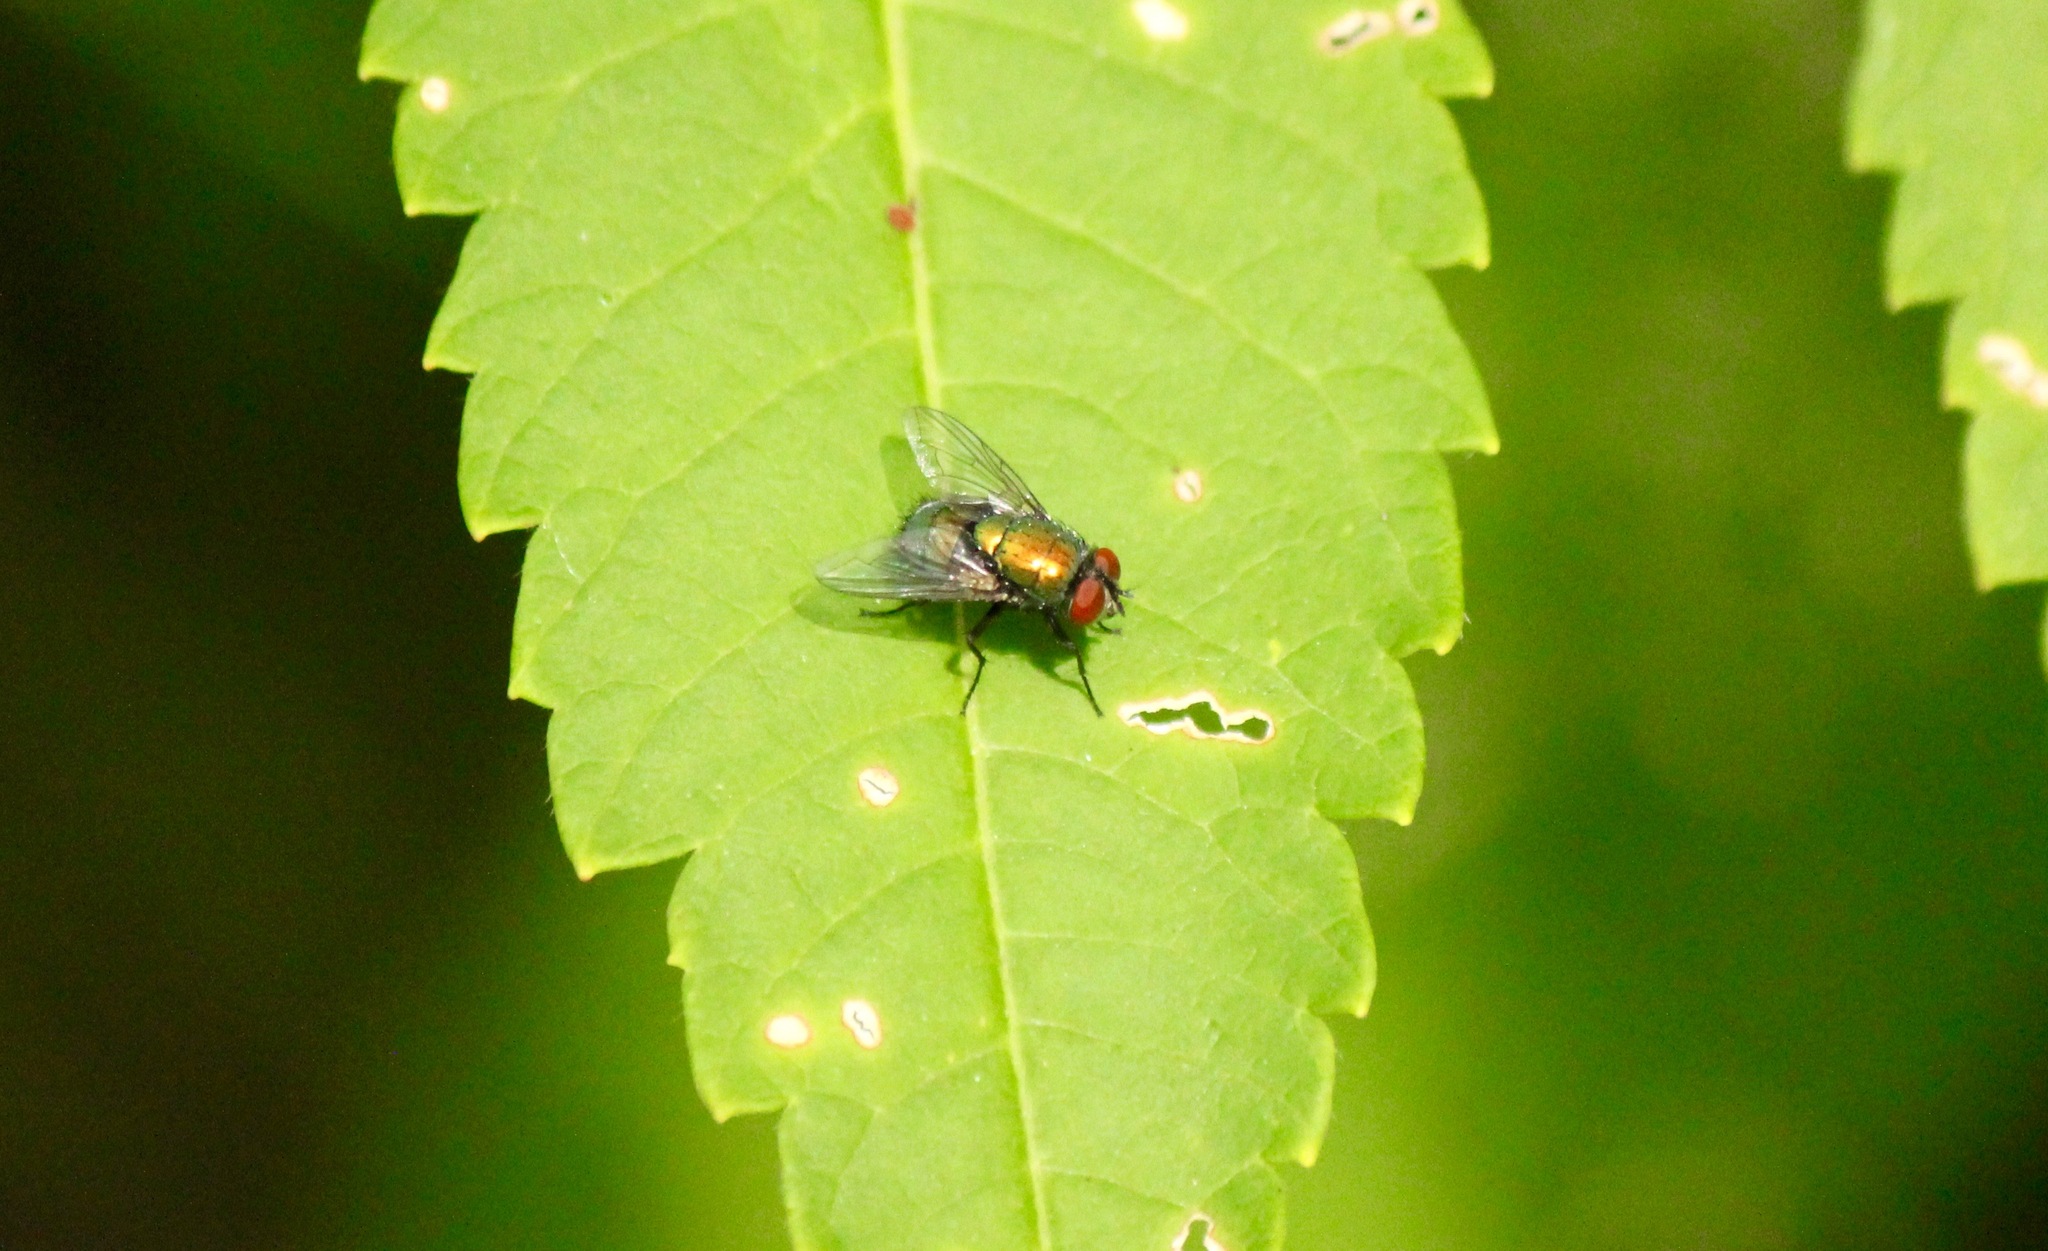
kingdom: Animalia
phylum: Arthropoda
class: Insecta
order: Diptera
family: Calliphoridae
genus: Lucilia
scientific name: Lucilia sericata
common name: Blow fly
